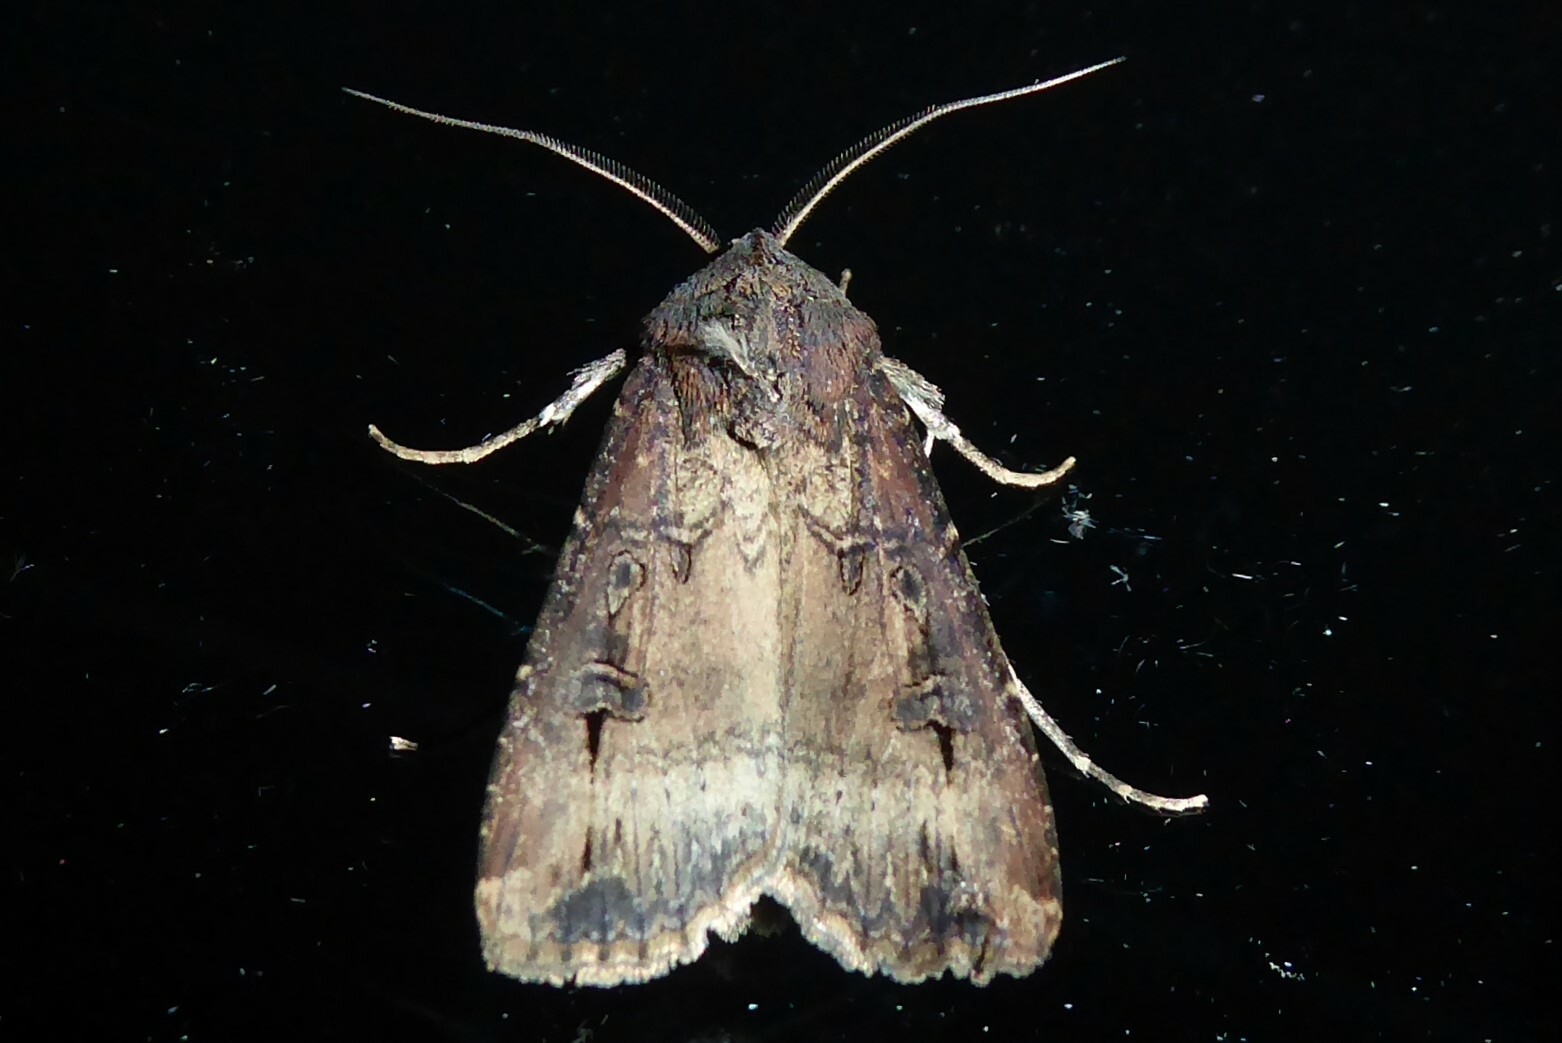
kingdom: Animalia
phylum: Arthropoda
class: Insecta
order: Lepidoptera
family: Noctuidae
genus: Agrotis
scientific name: Agrotis ipsilon
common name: Dark sword-grass
